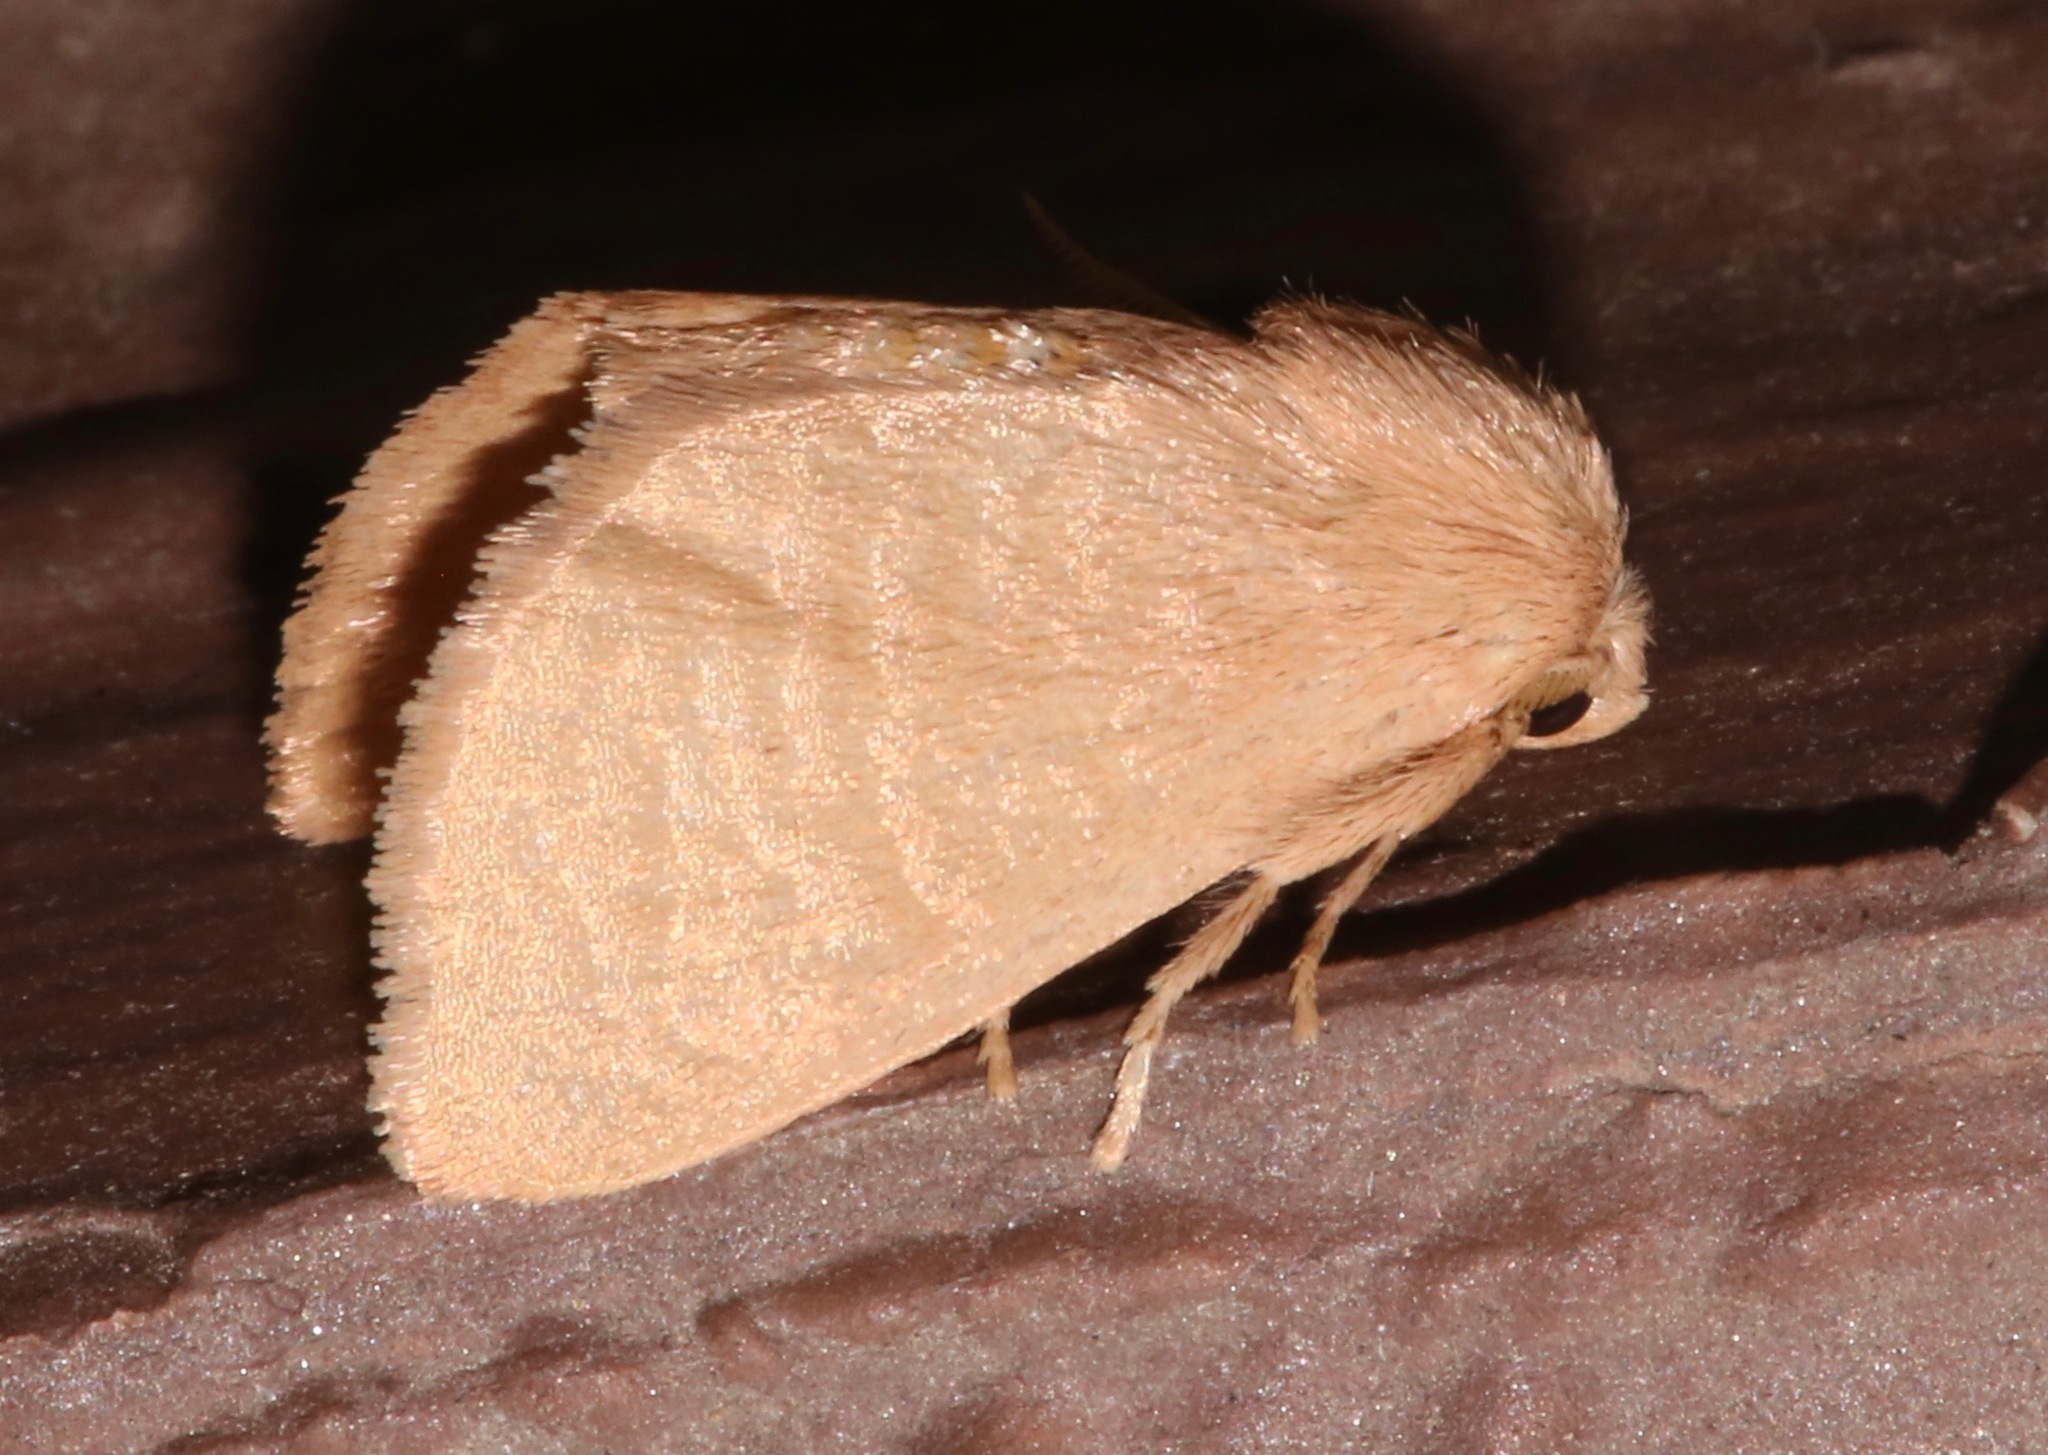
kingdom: Animalia
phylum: Arthropoda
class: Insecta
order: Lepidoptera
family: Limacodidae
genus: Isa
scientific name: Isa schaefferana
